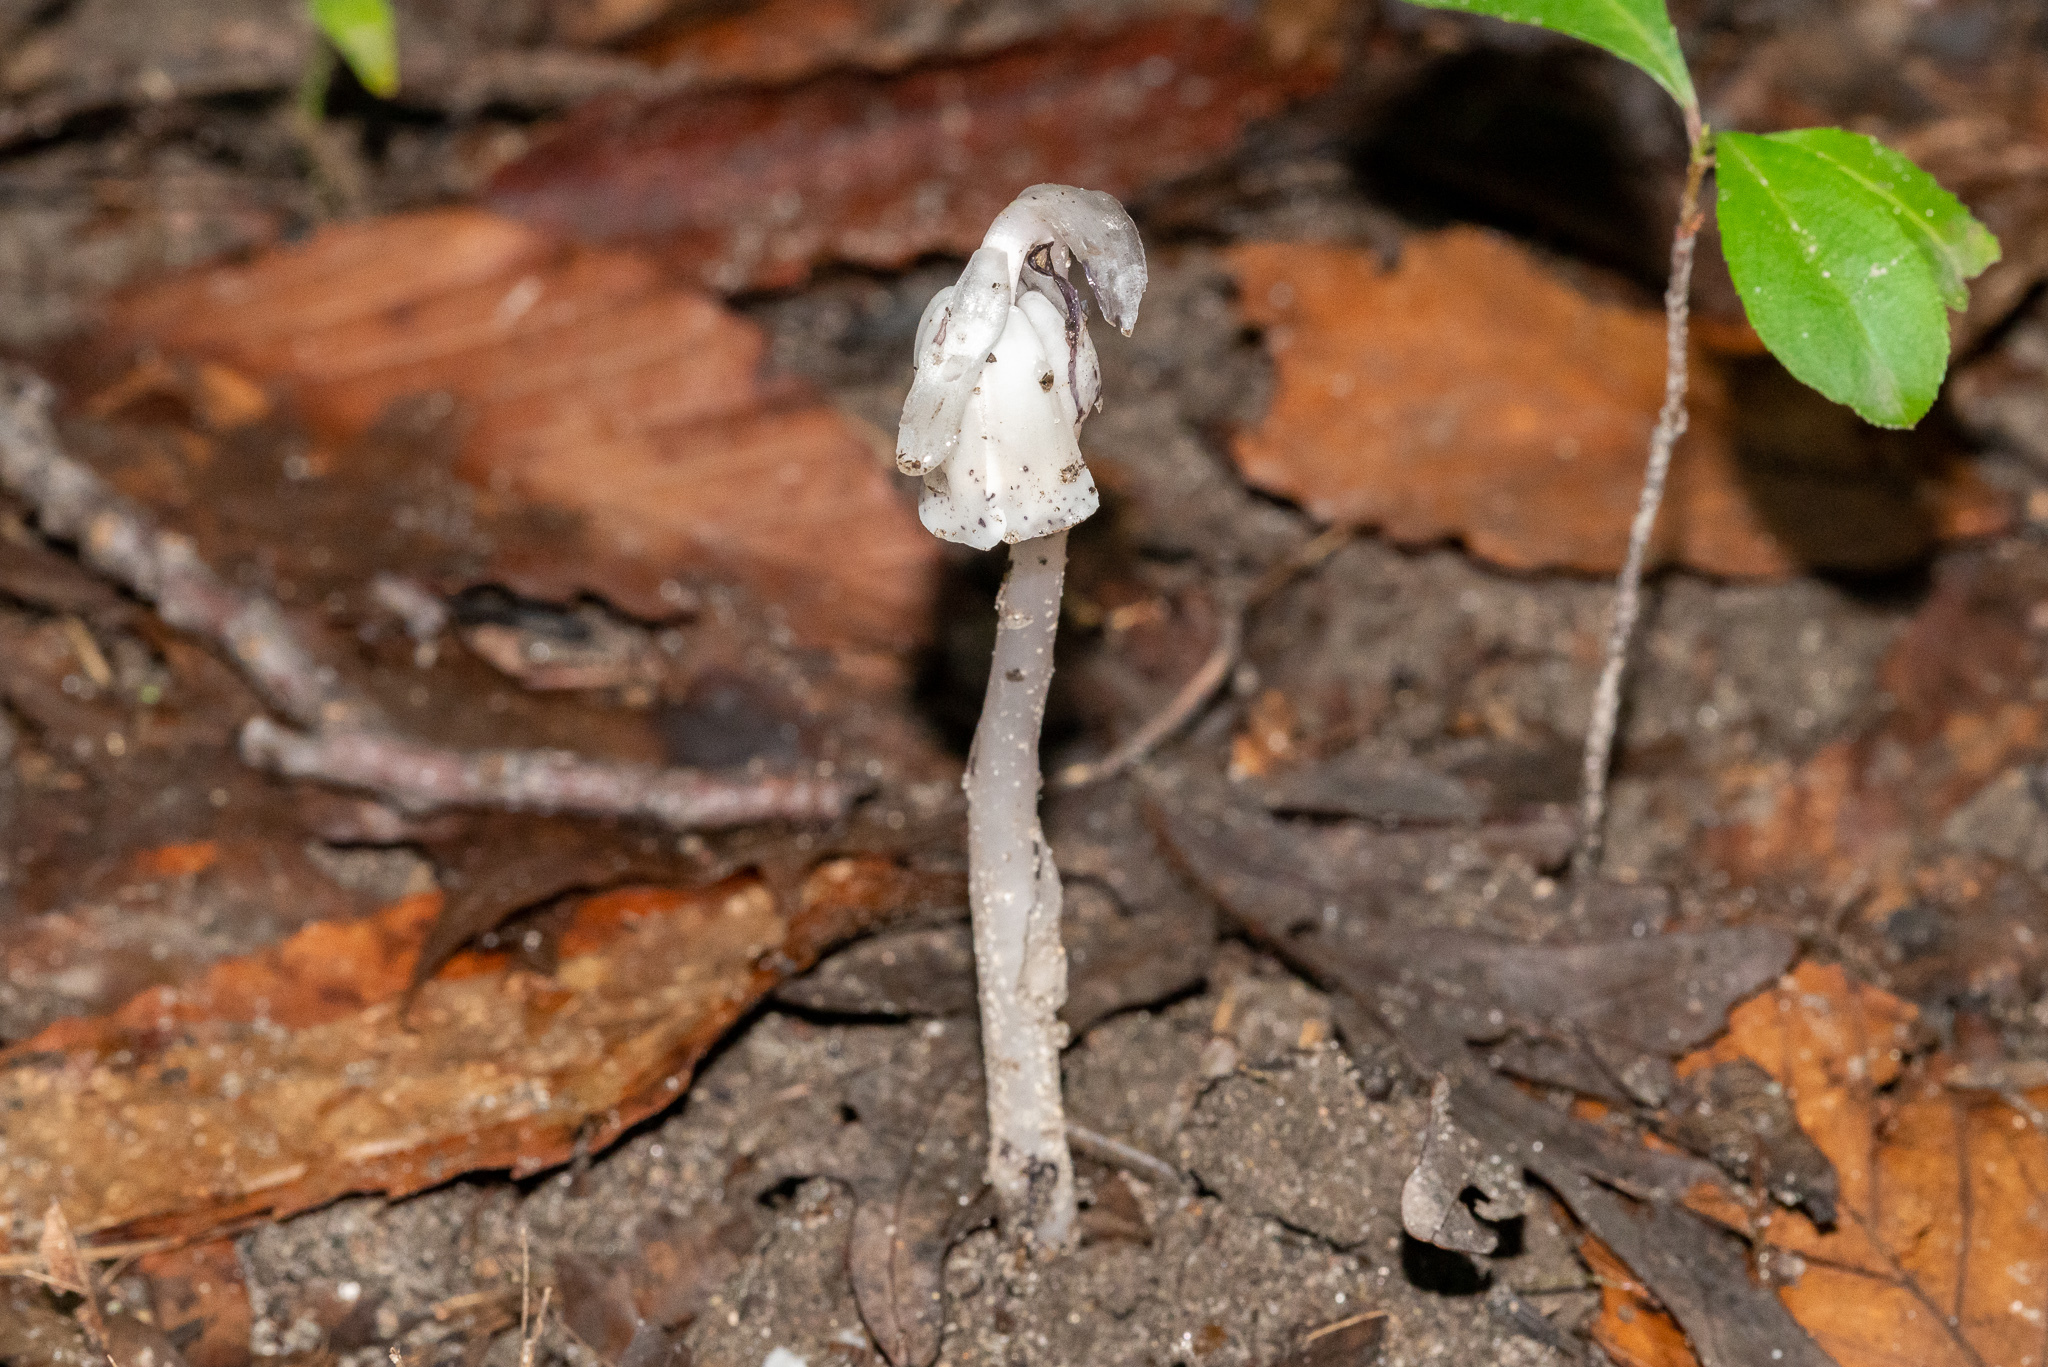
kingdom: Plantae
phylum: Tracheophyta
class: Magnoliopsida
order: Ericales
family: Ericaceae
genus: Monotropa
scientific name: Monotropa uniflora
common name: Convulsion root
